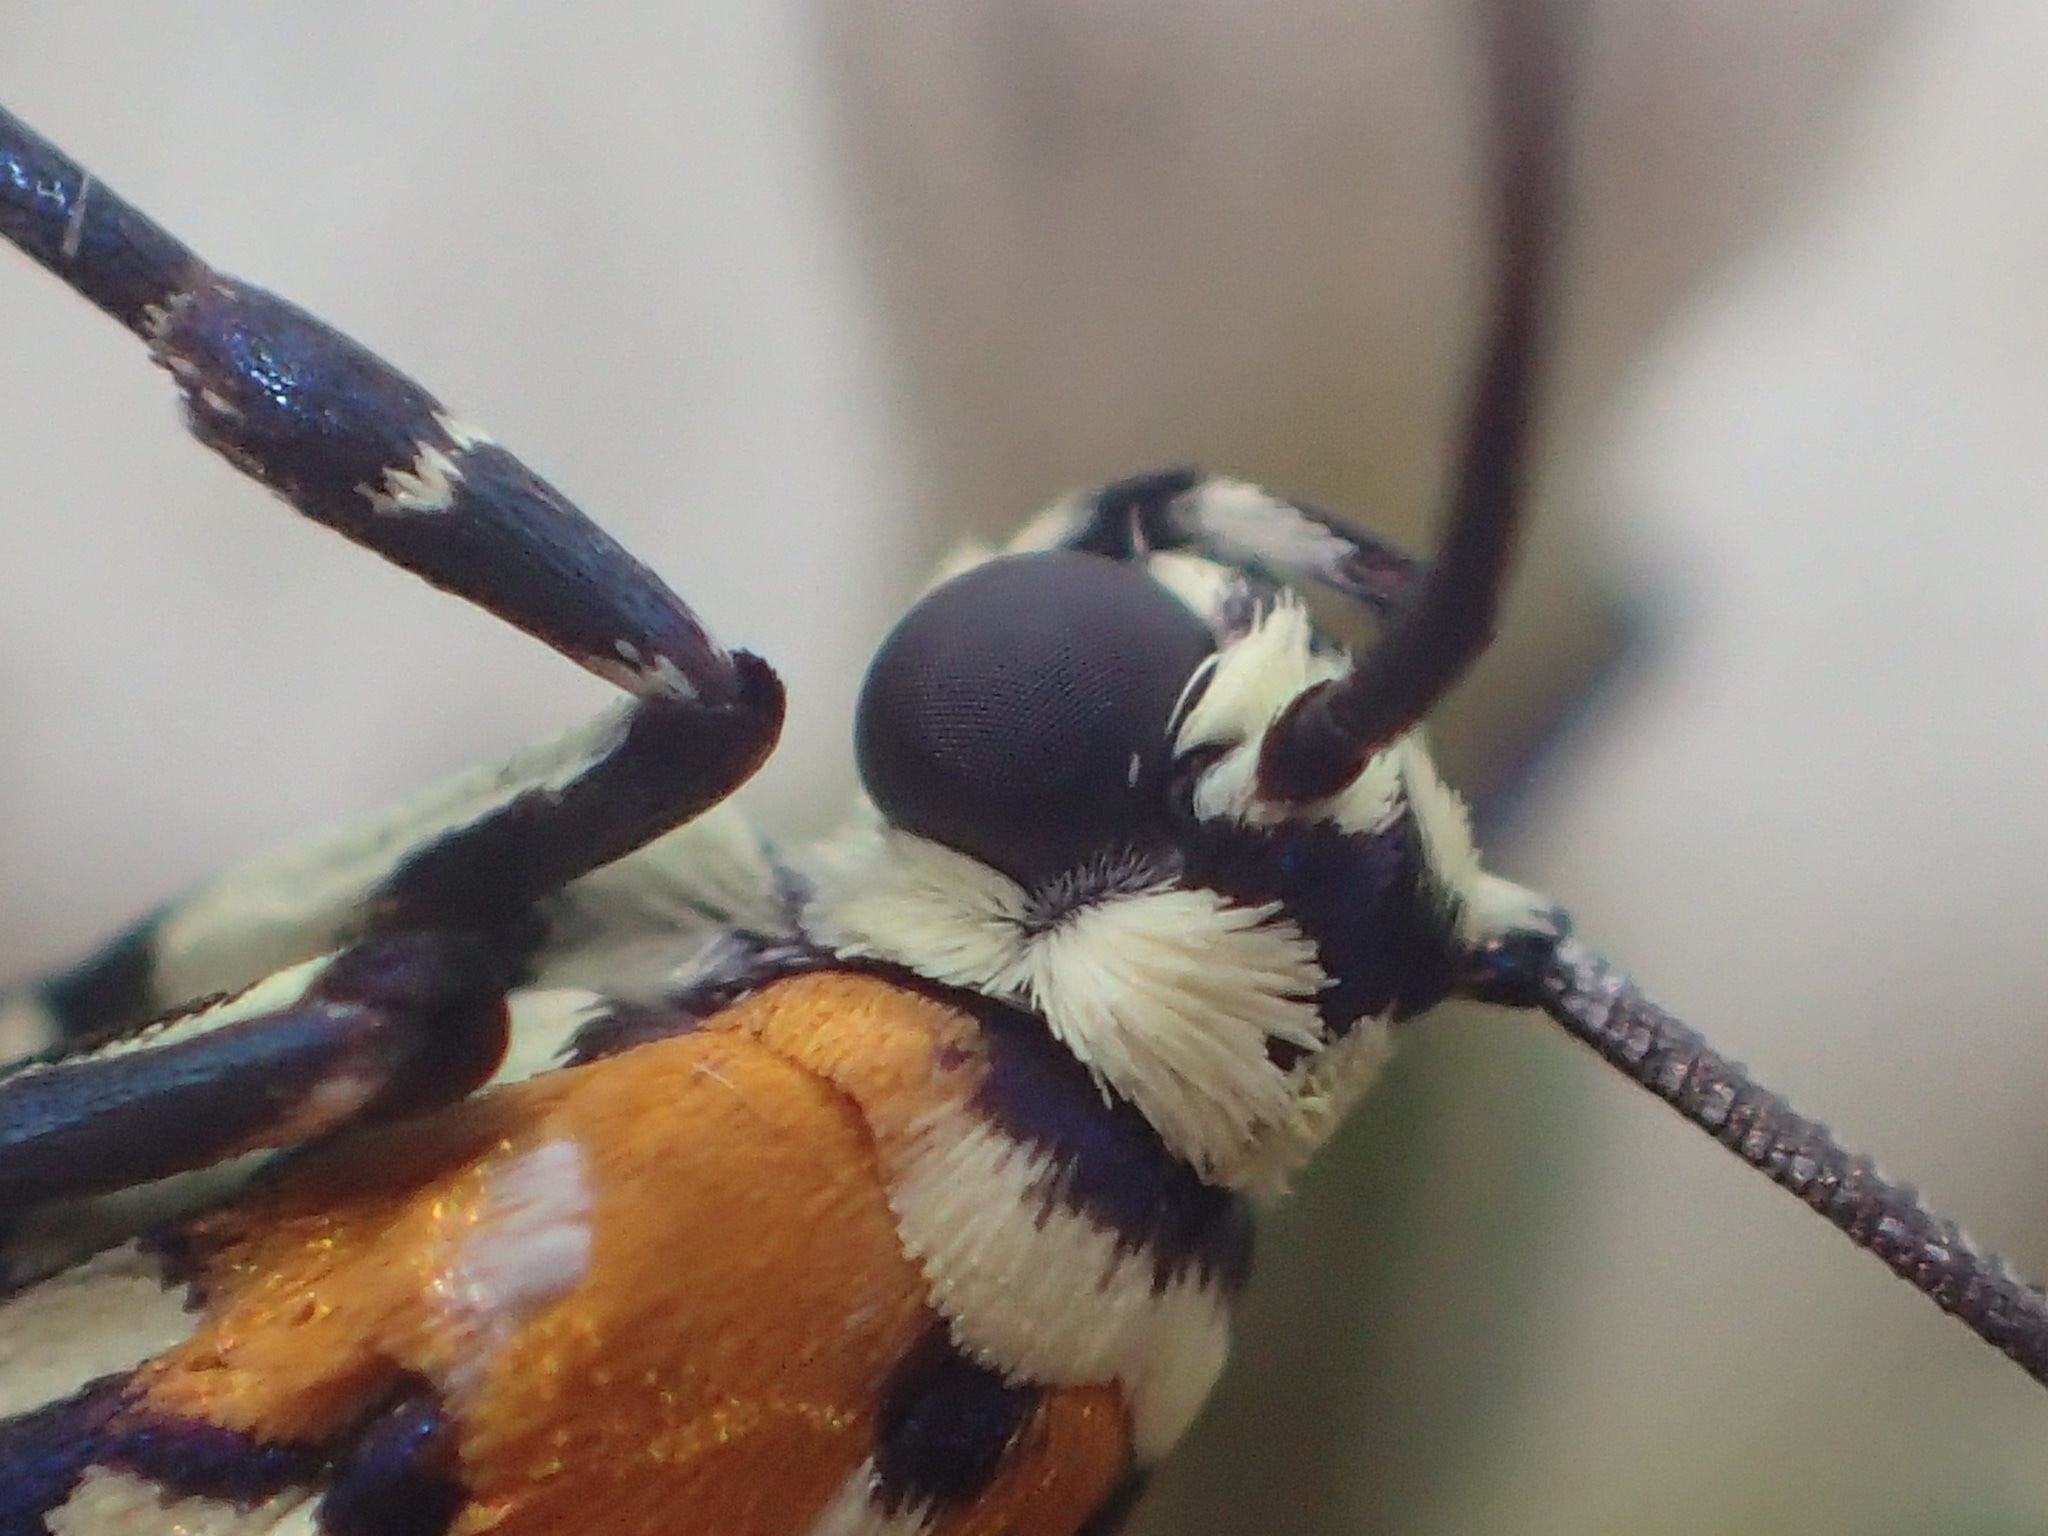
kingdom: Animalia
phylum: Arthropoda
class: Insecta
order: Lepidoptera
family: Attevidae
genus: Atteva
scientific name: Atteva punctella
